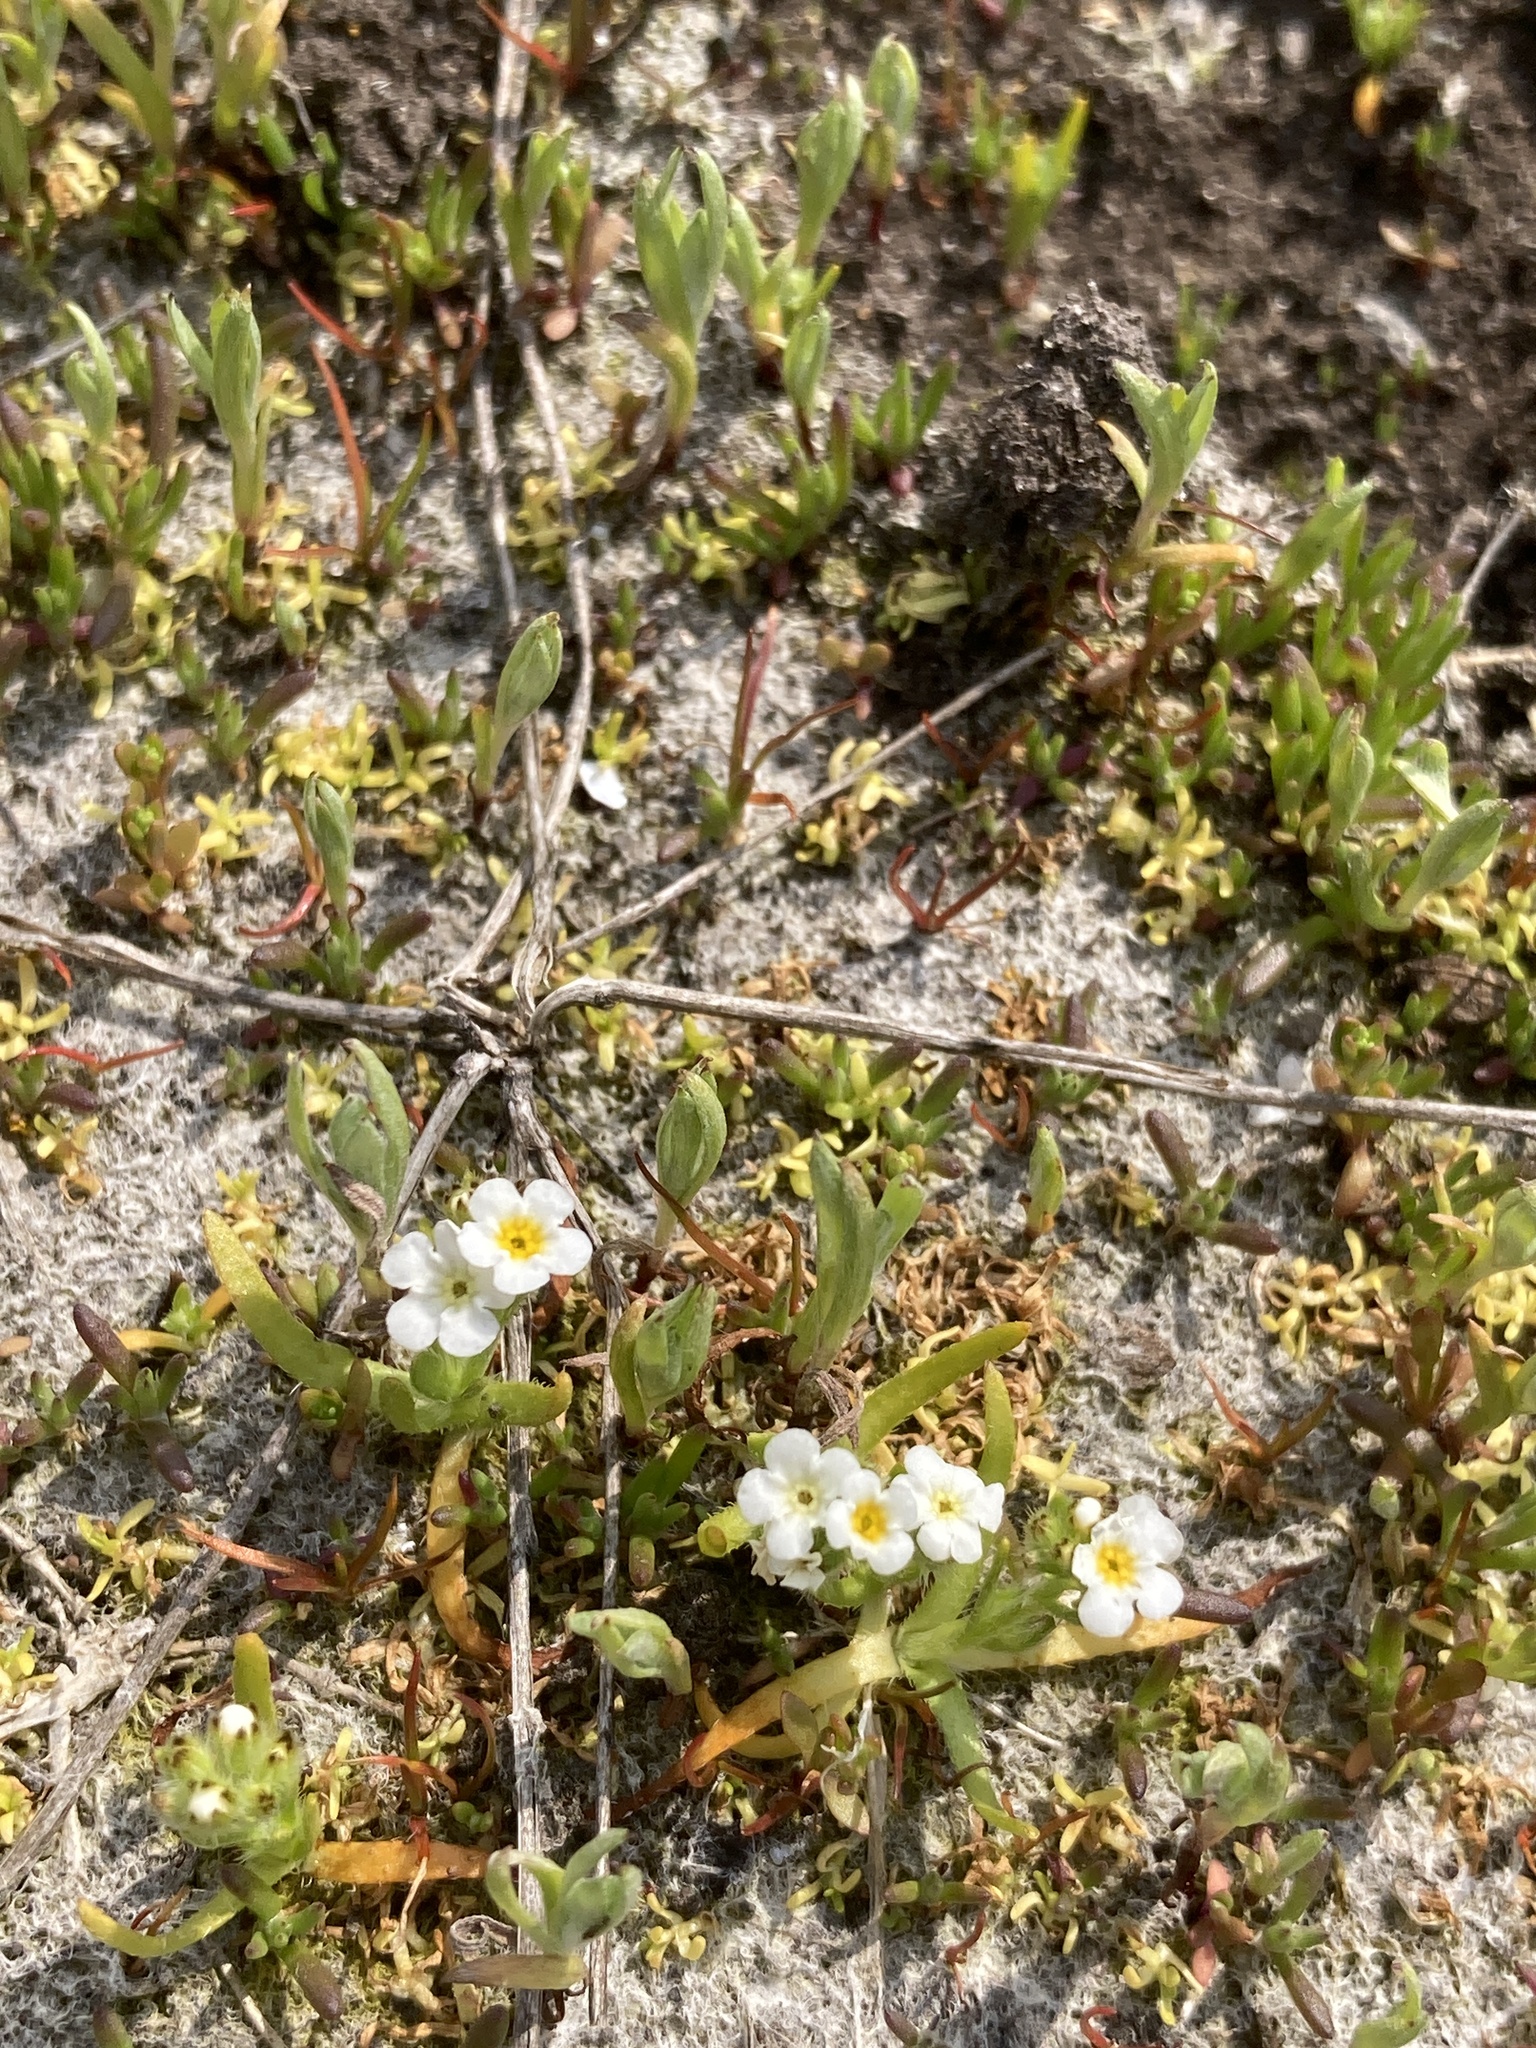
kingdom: Plantae
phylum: Tracheophyta
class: Magnoliopsida
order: Boraginales
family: Boraginaceae
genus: Plagiobothrys
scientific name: Plagiobothrys scouleri
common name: White forget-me-not
